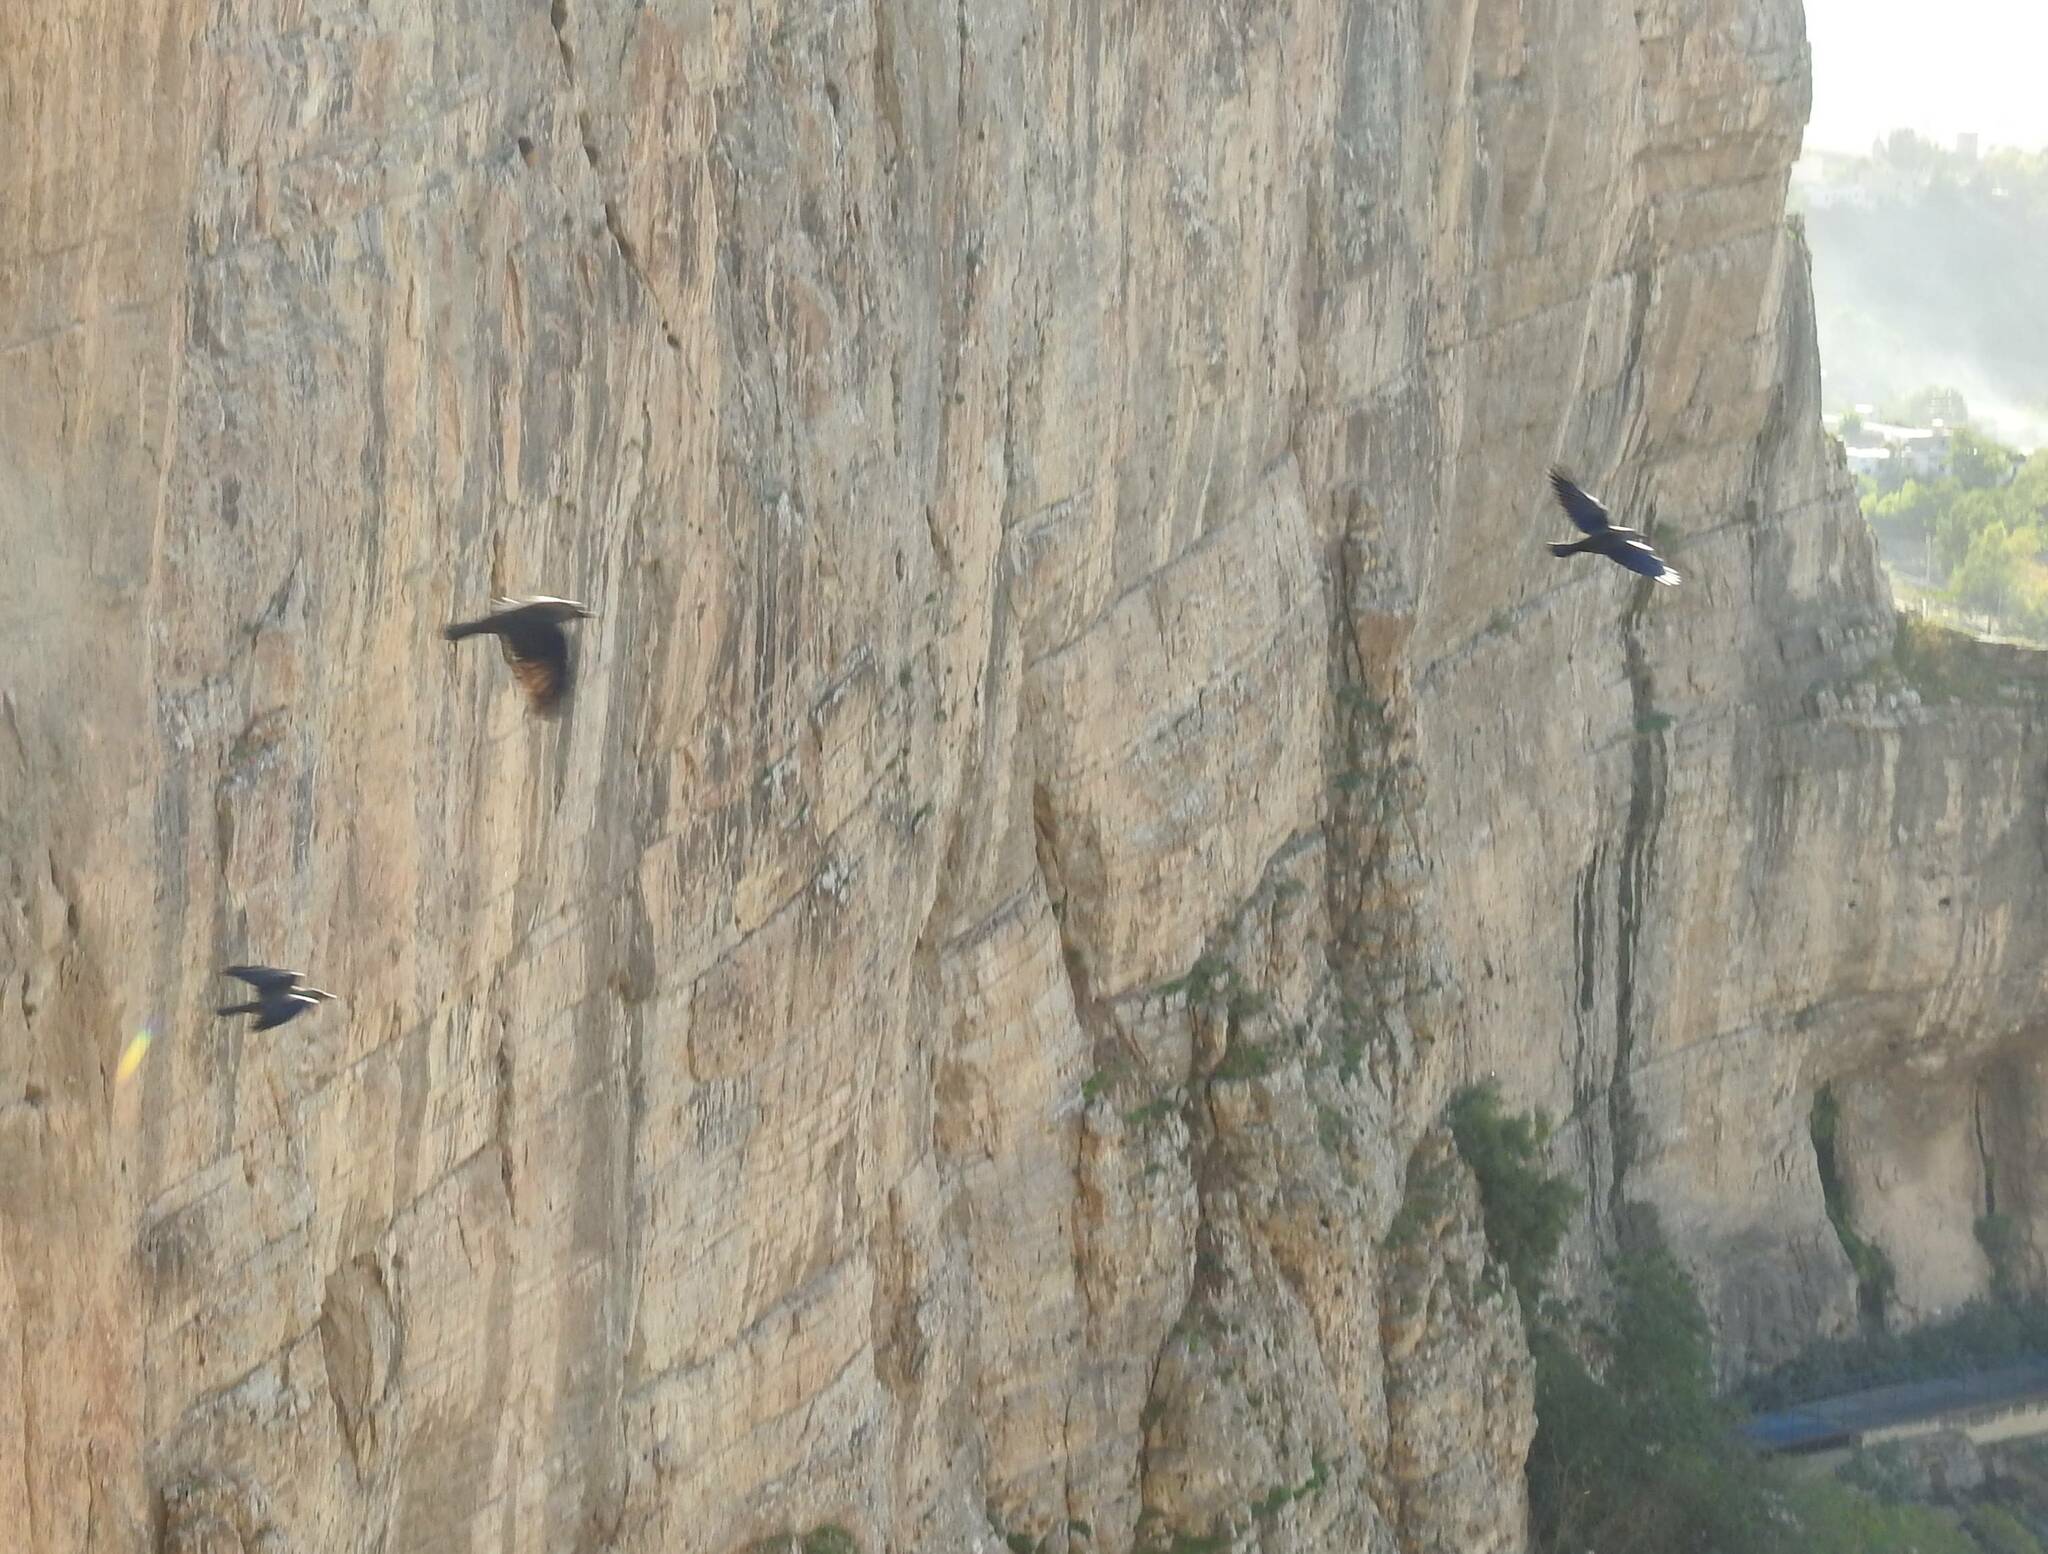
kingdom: Animalia
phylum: Chordata
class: Aves
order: Passeriformes
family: Corvidae
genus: Coloeus
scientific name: Coloeus monedula
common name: Western jackdaw
